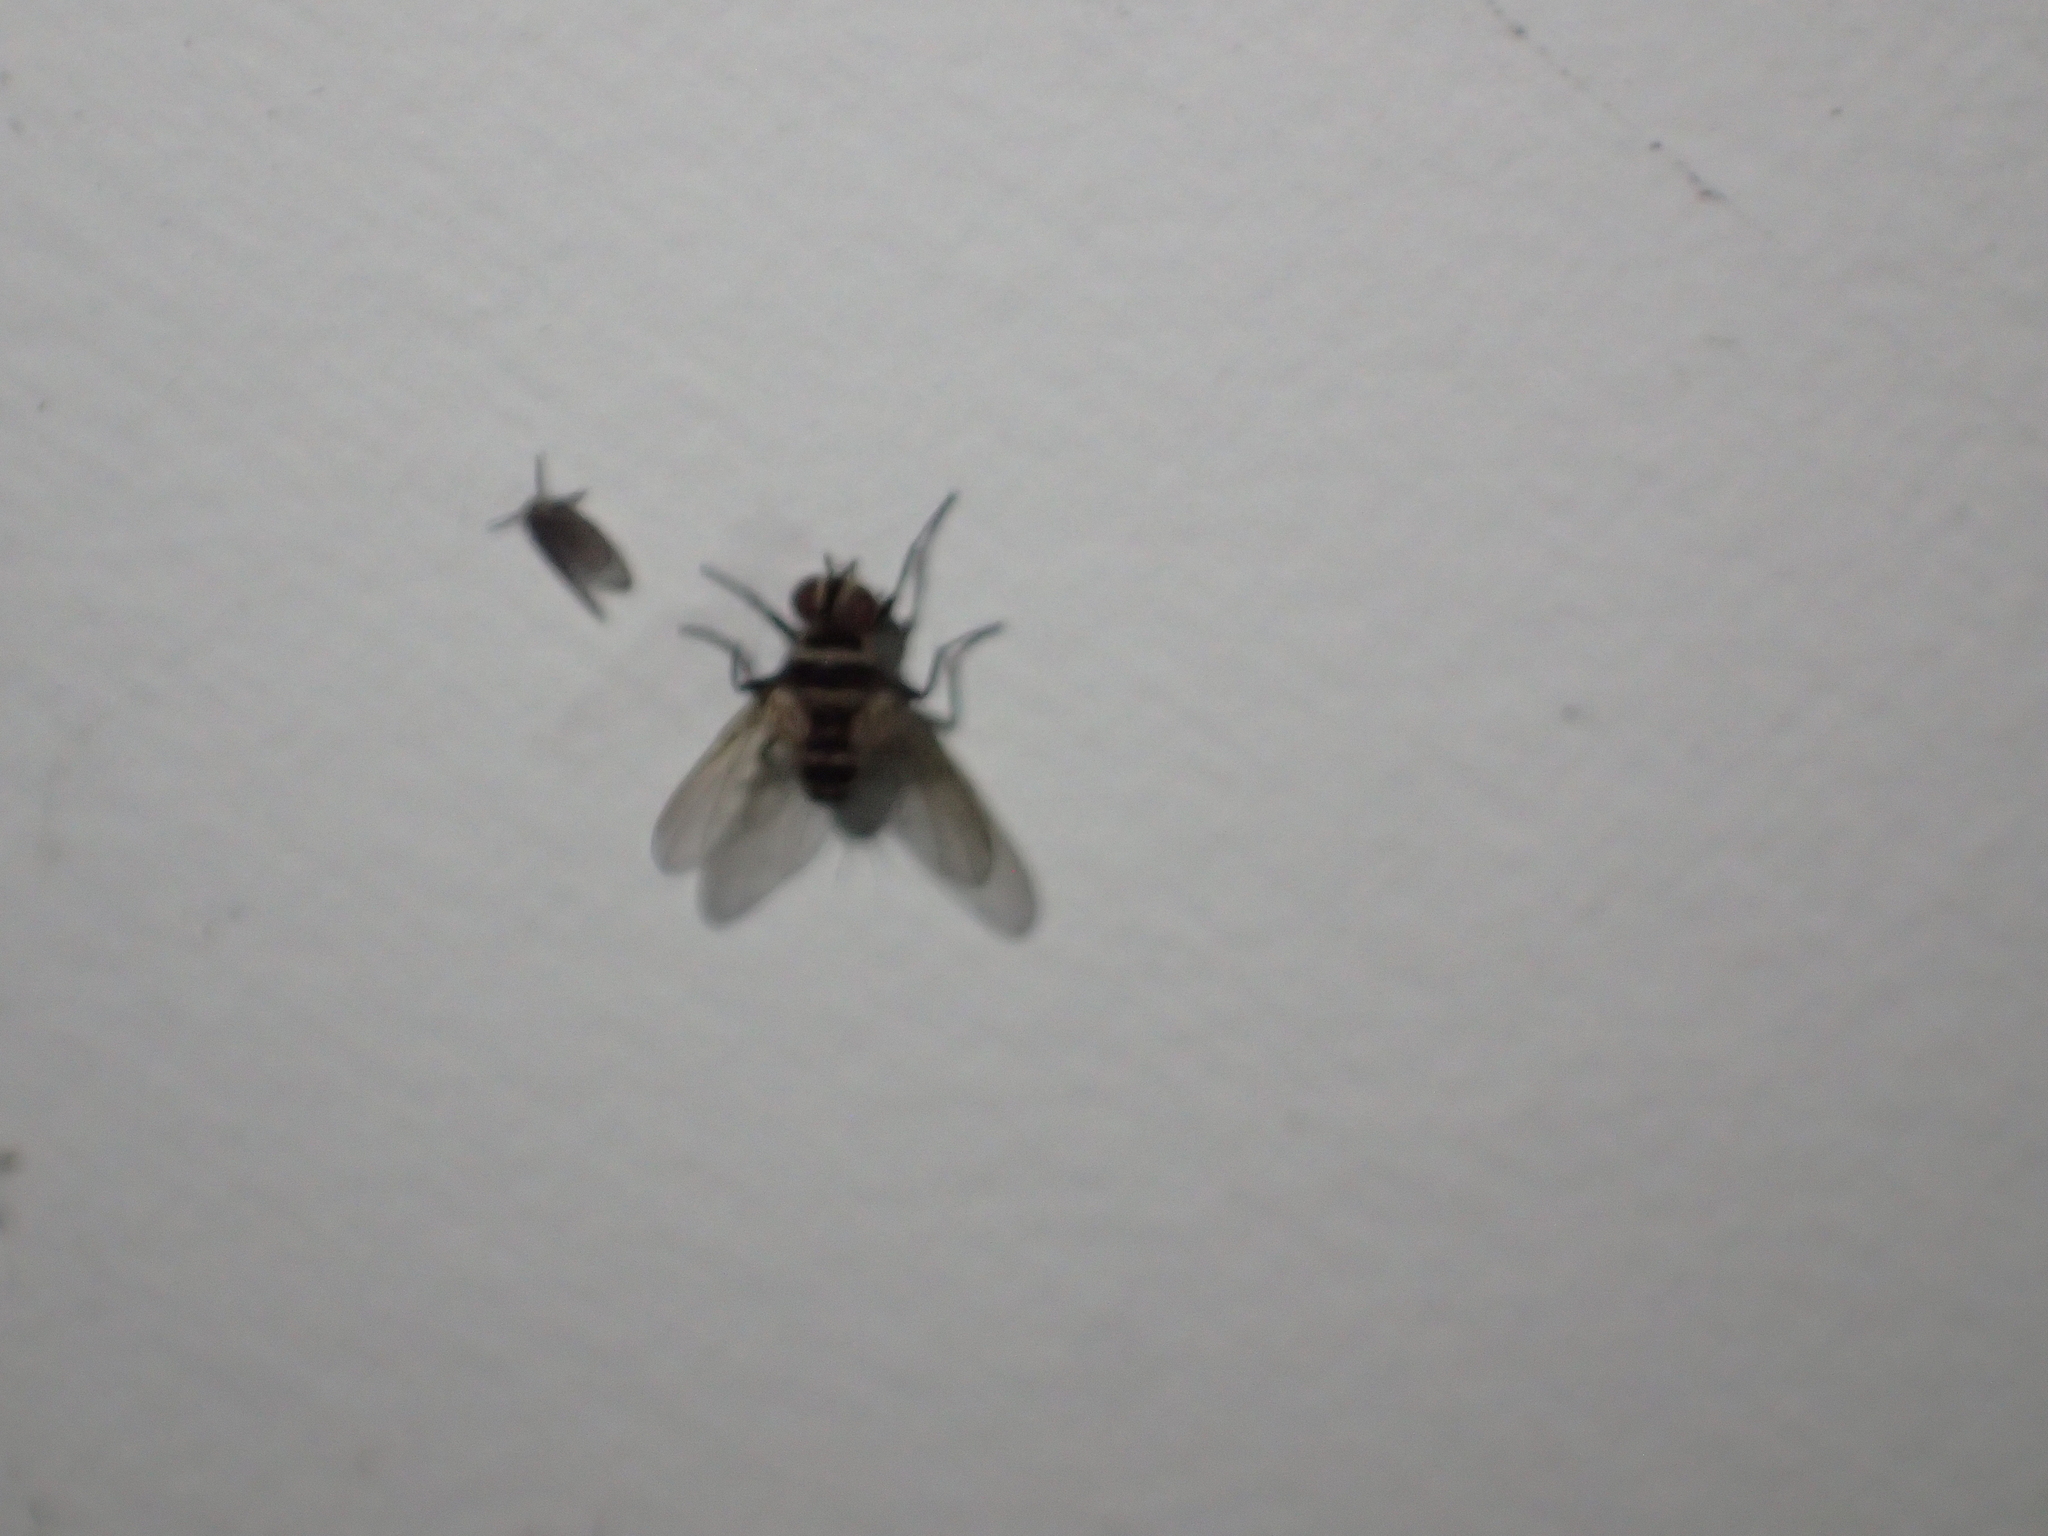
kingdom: Animalia
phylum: Arthropoda
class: Insecta
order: Diptera
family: Tachinidae
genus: Trigonospila
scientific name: Trigonospila brevifacies
